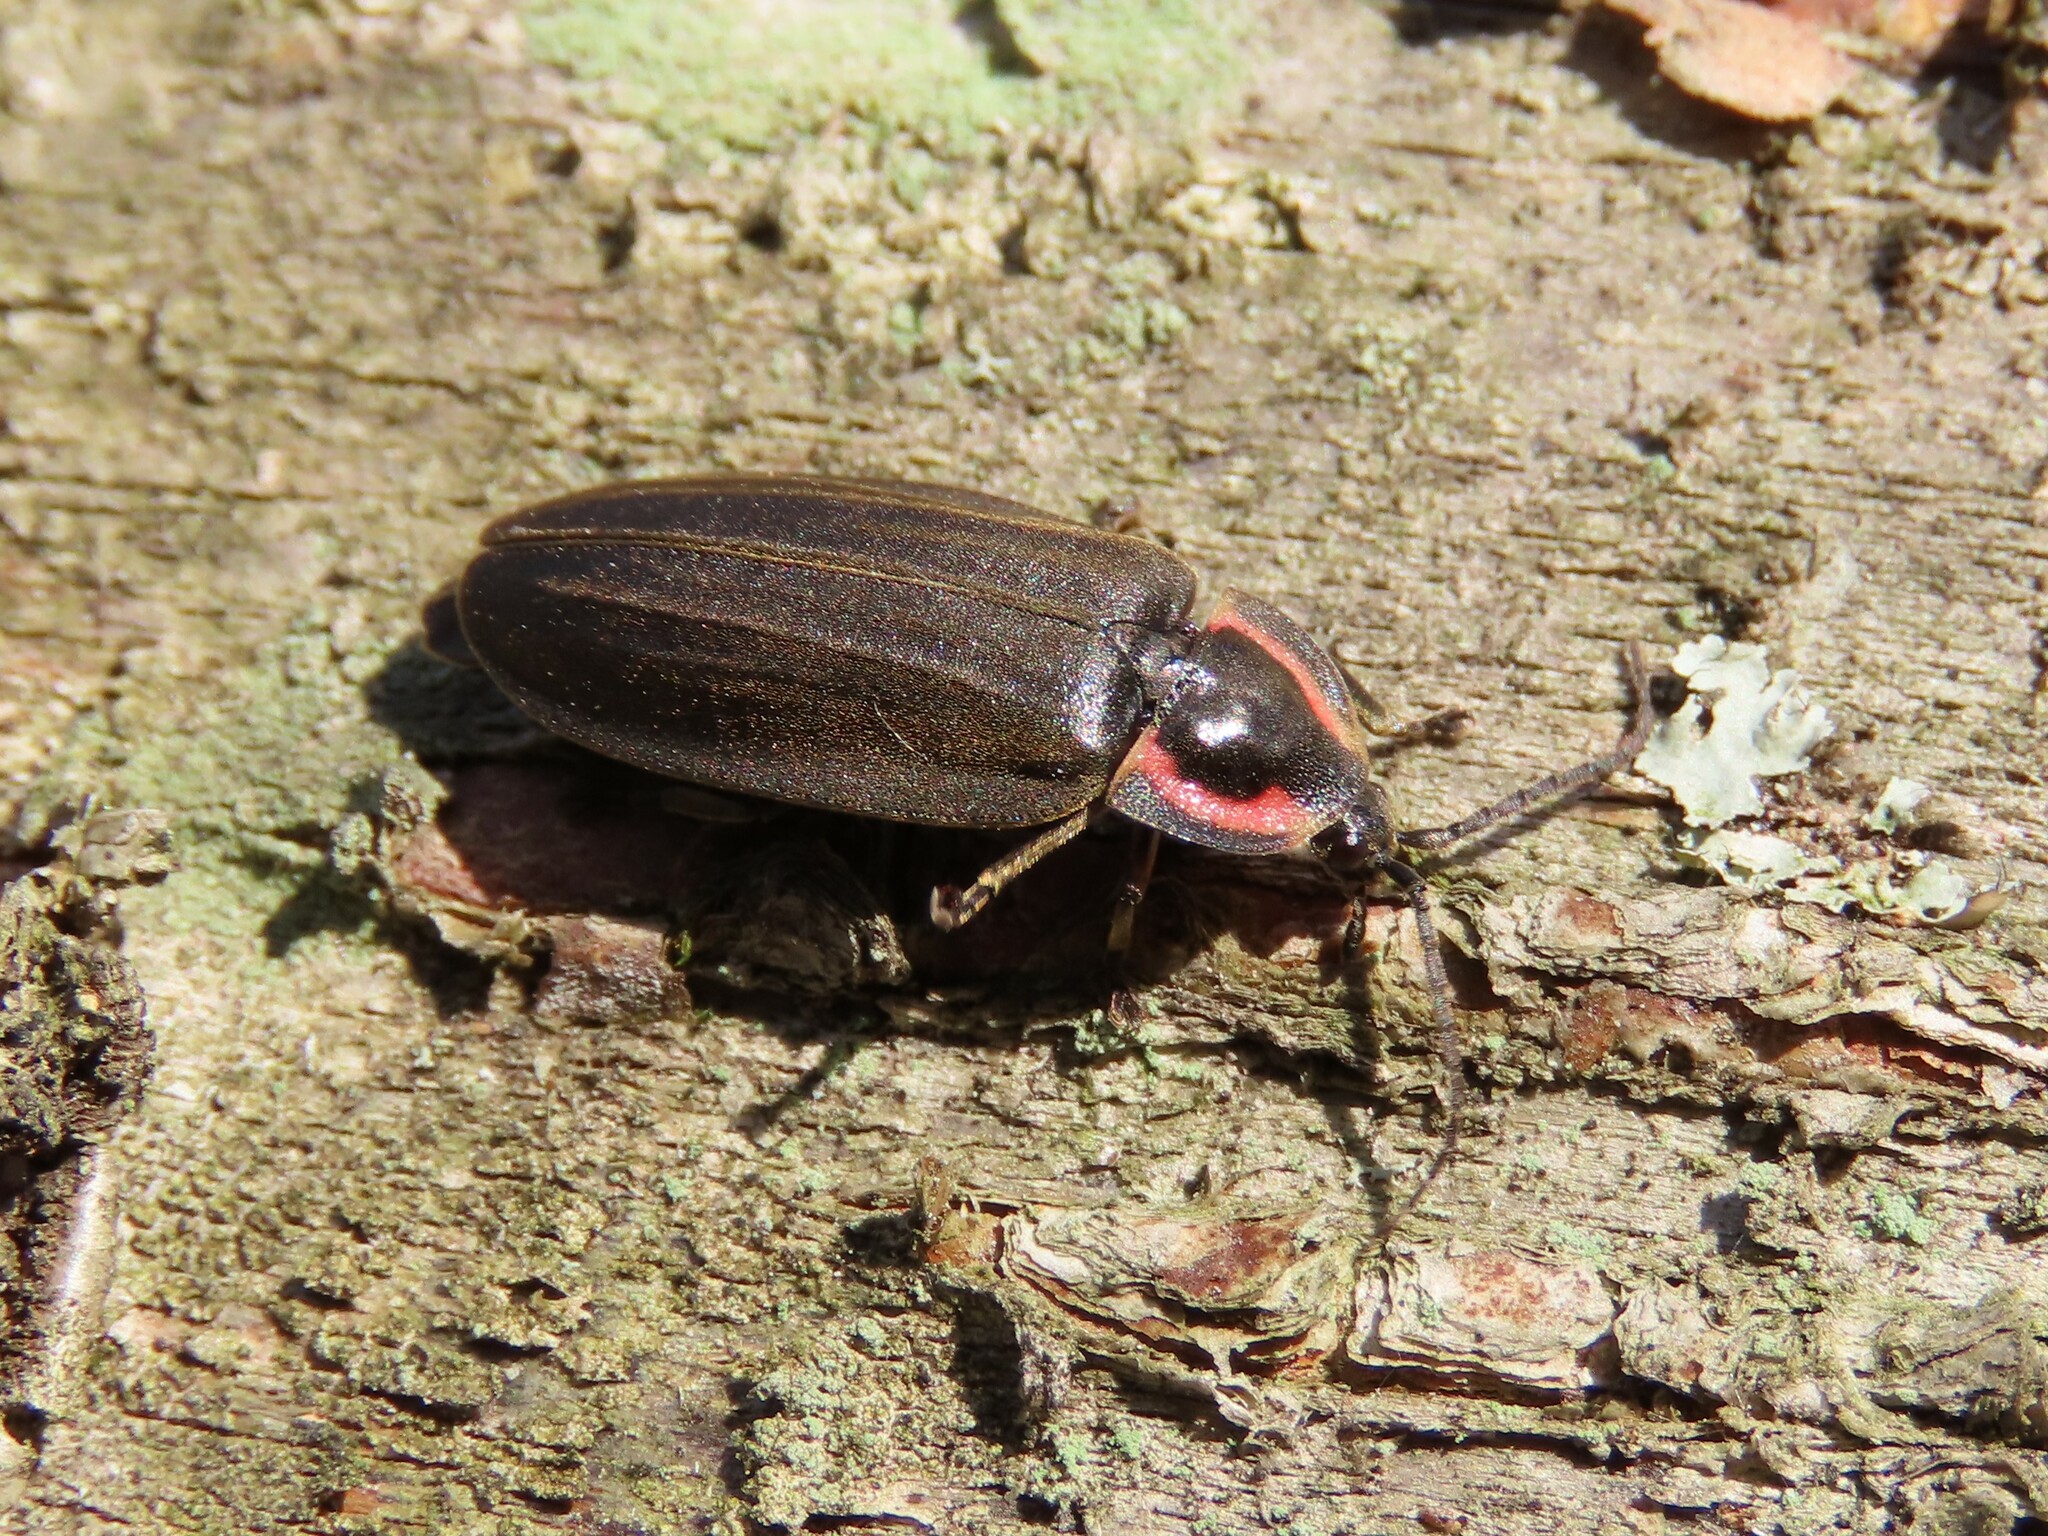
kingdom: Animalia
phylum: Arthropoda
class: Insecta
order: Coleoptera
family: Lampyridae
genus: Photinus
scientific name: Photinus corrusca
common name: Winter firefly
